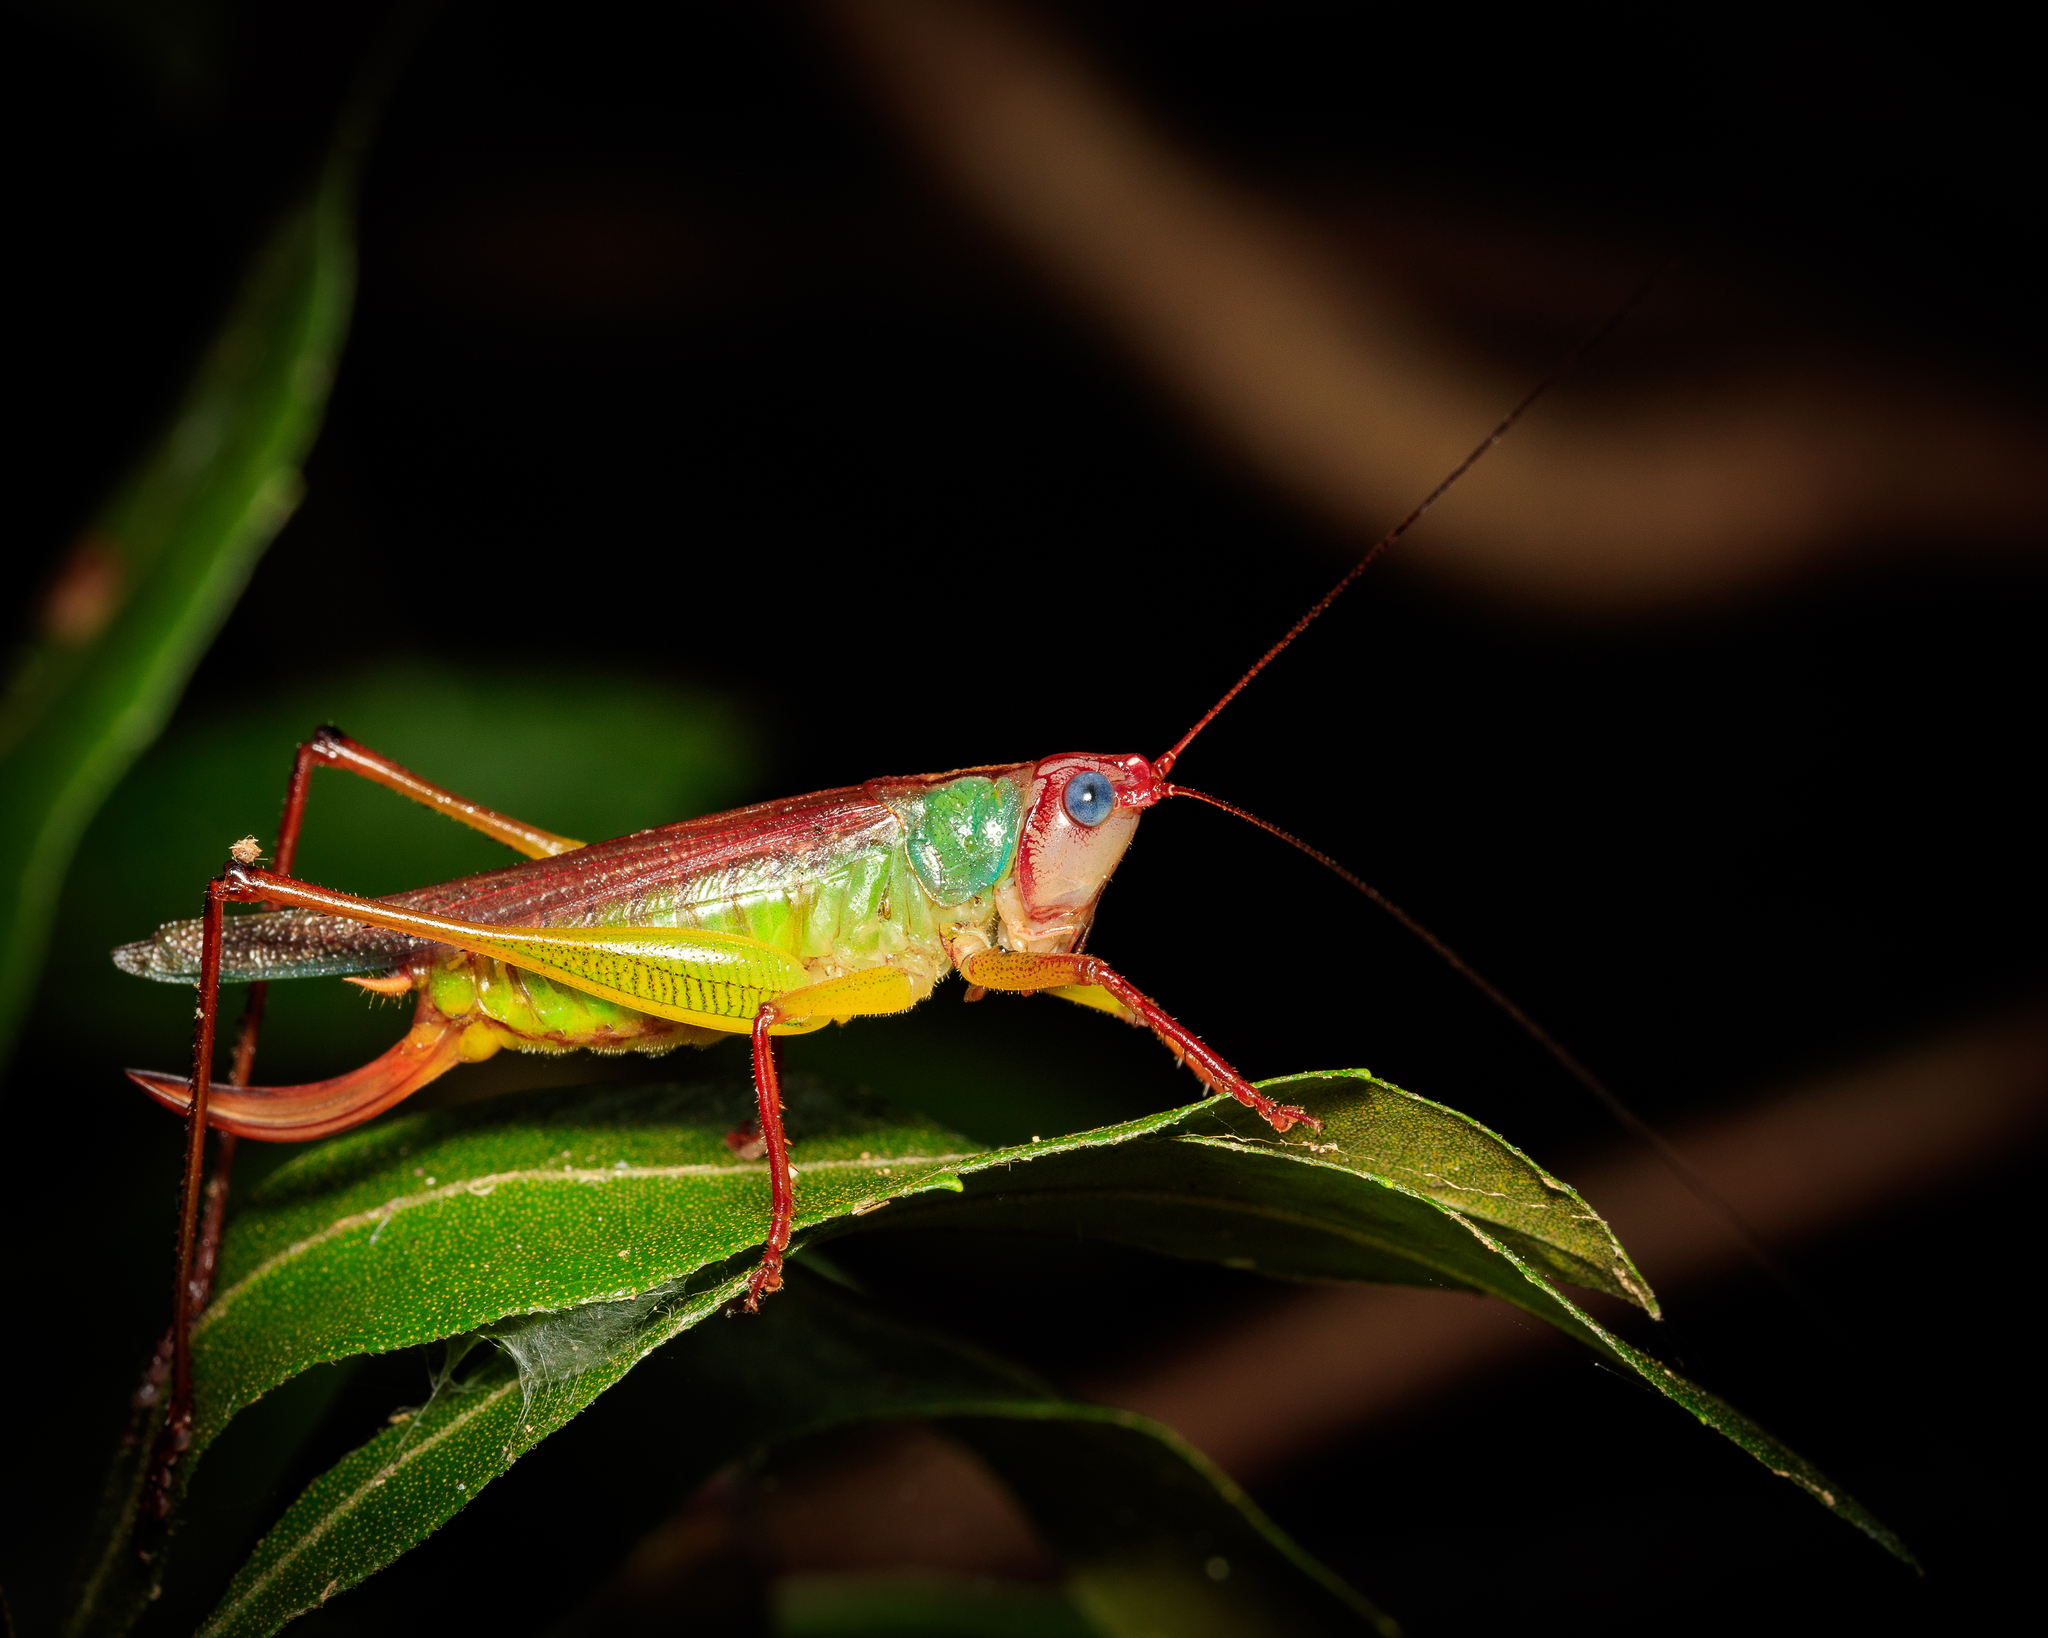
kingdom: Animalia
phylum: Arthropoda
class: Insecta
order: Orthoptera
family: Tettigoniidae
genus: Orchelimum
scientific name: Orchelimum pulchellum
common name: Handsome meadow katydid
